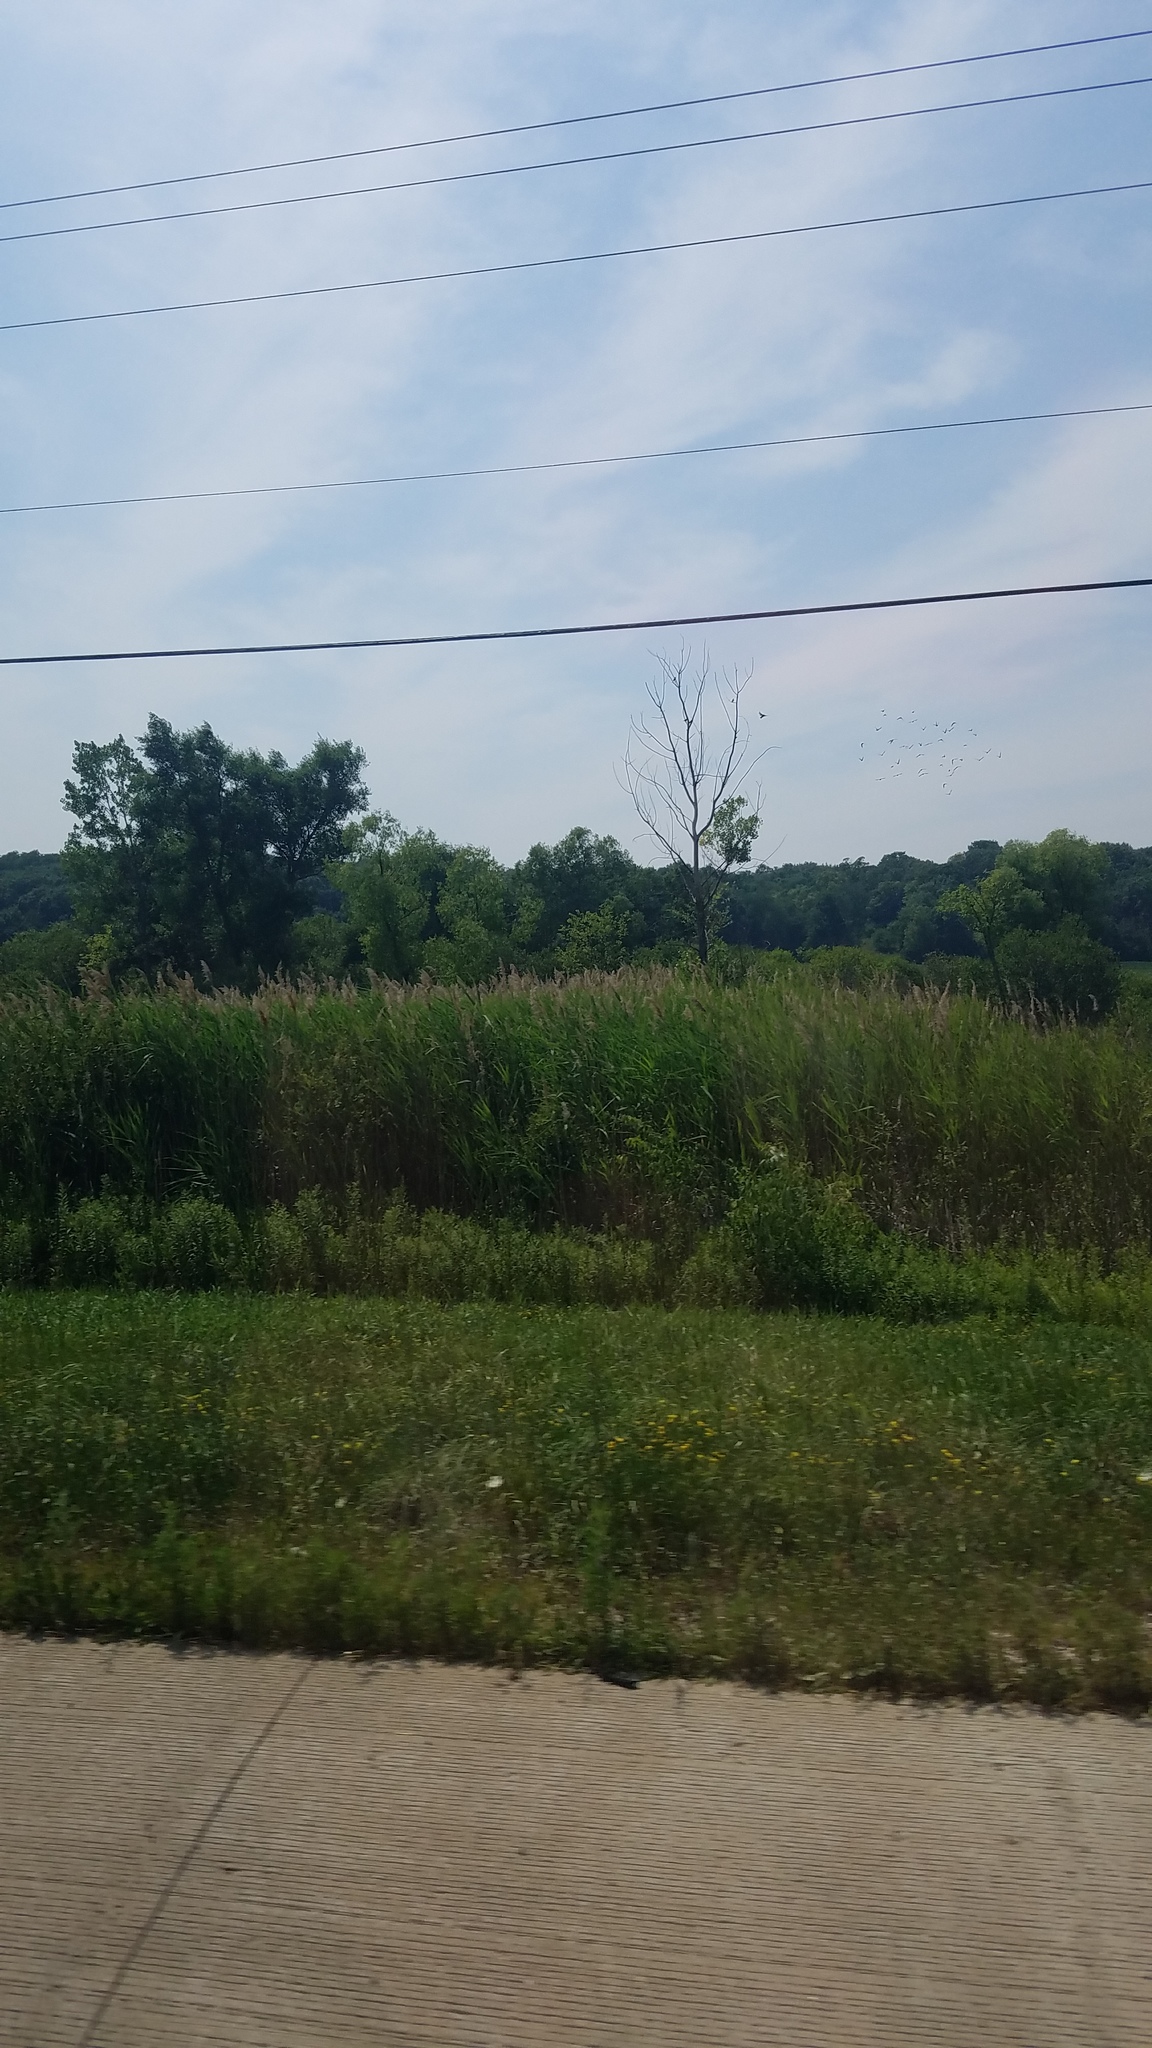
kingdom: Plantae
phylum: Tracheophyta
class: Liliopsida
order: Poales
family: Poaceae
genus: Phragmites
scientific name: Phragmites australis
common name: Common reed
